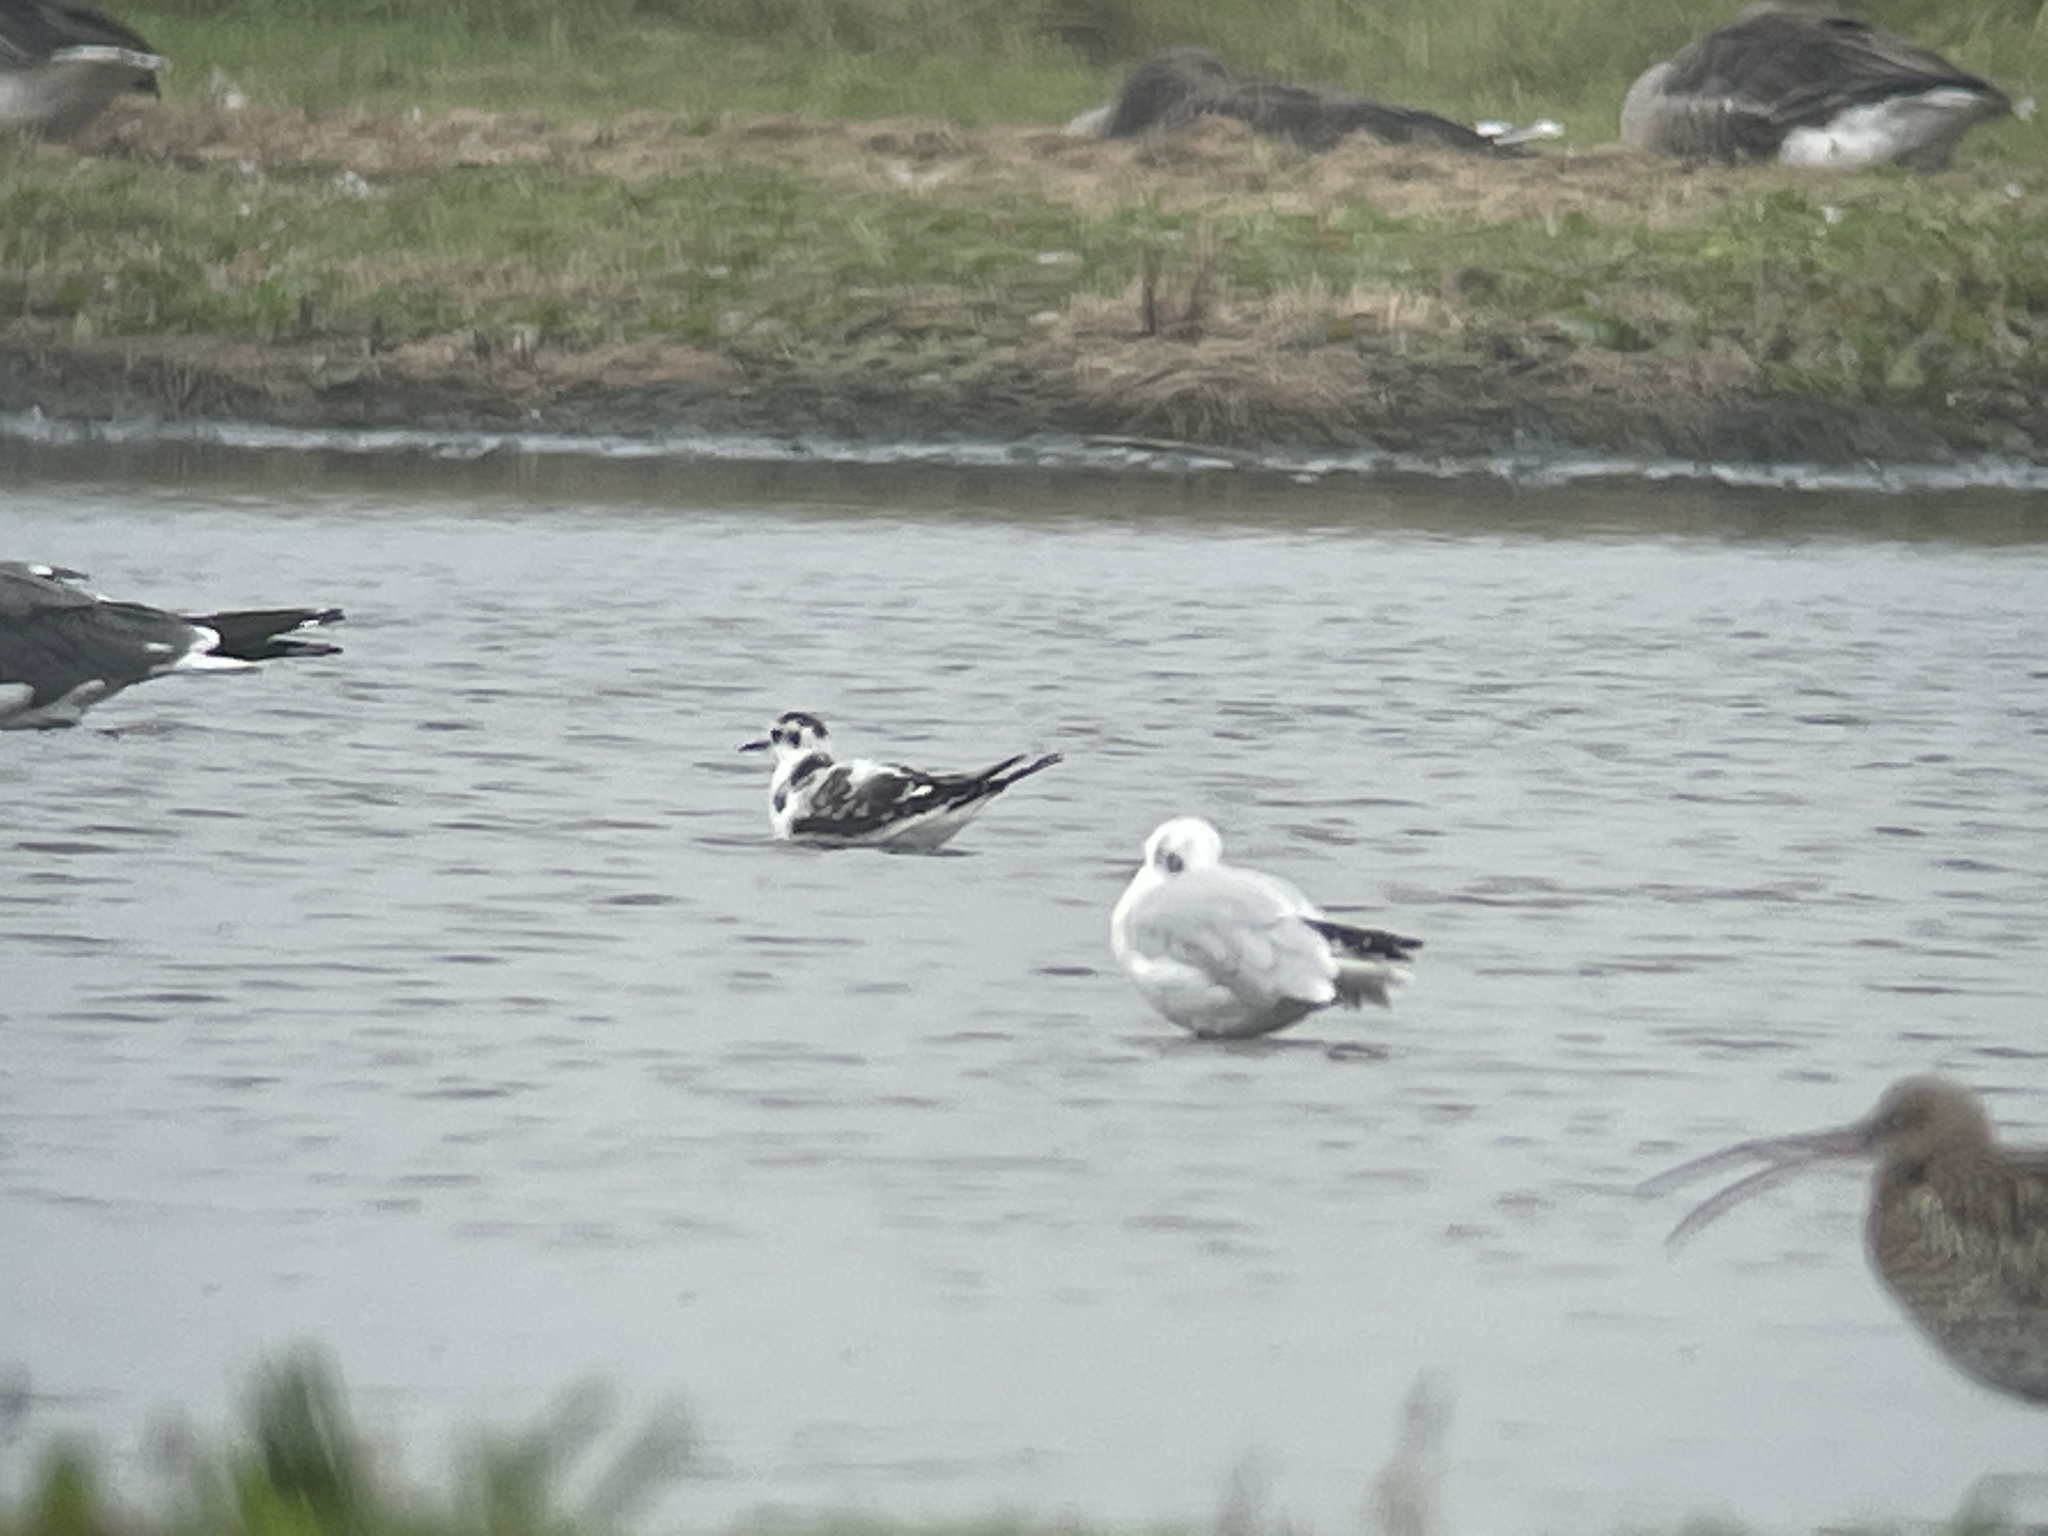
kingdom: Animalia
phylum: Chordata
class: Aves
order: Charadriiformes
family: Laridae
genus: Hydrocoloeus
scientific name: Hydrocoloeus minutus
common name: Little gull
